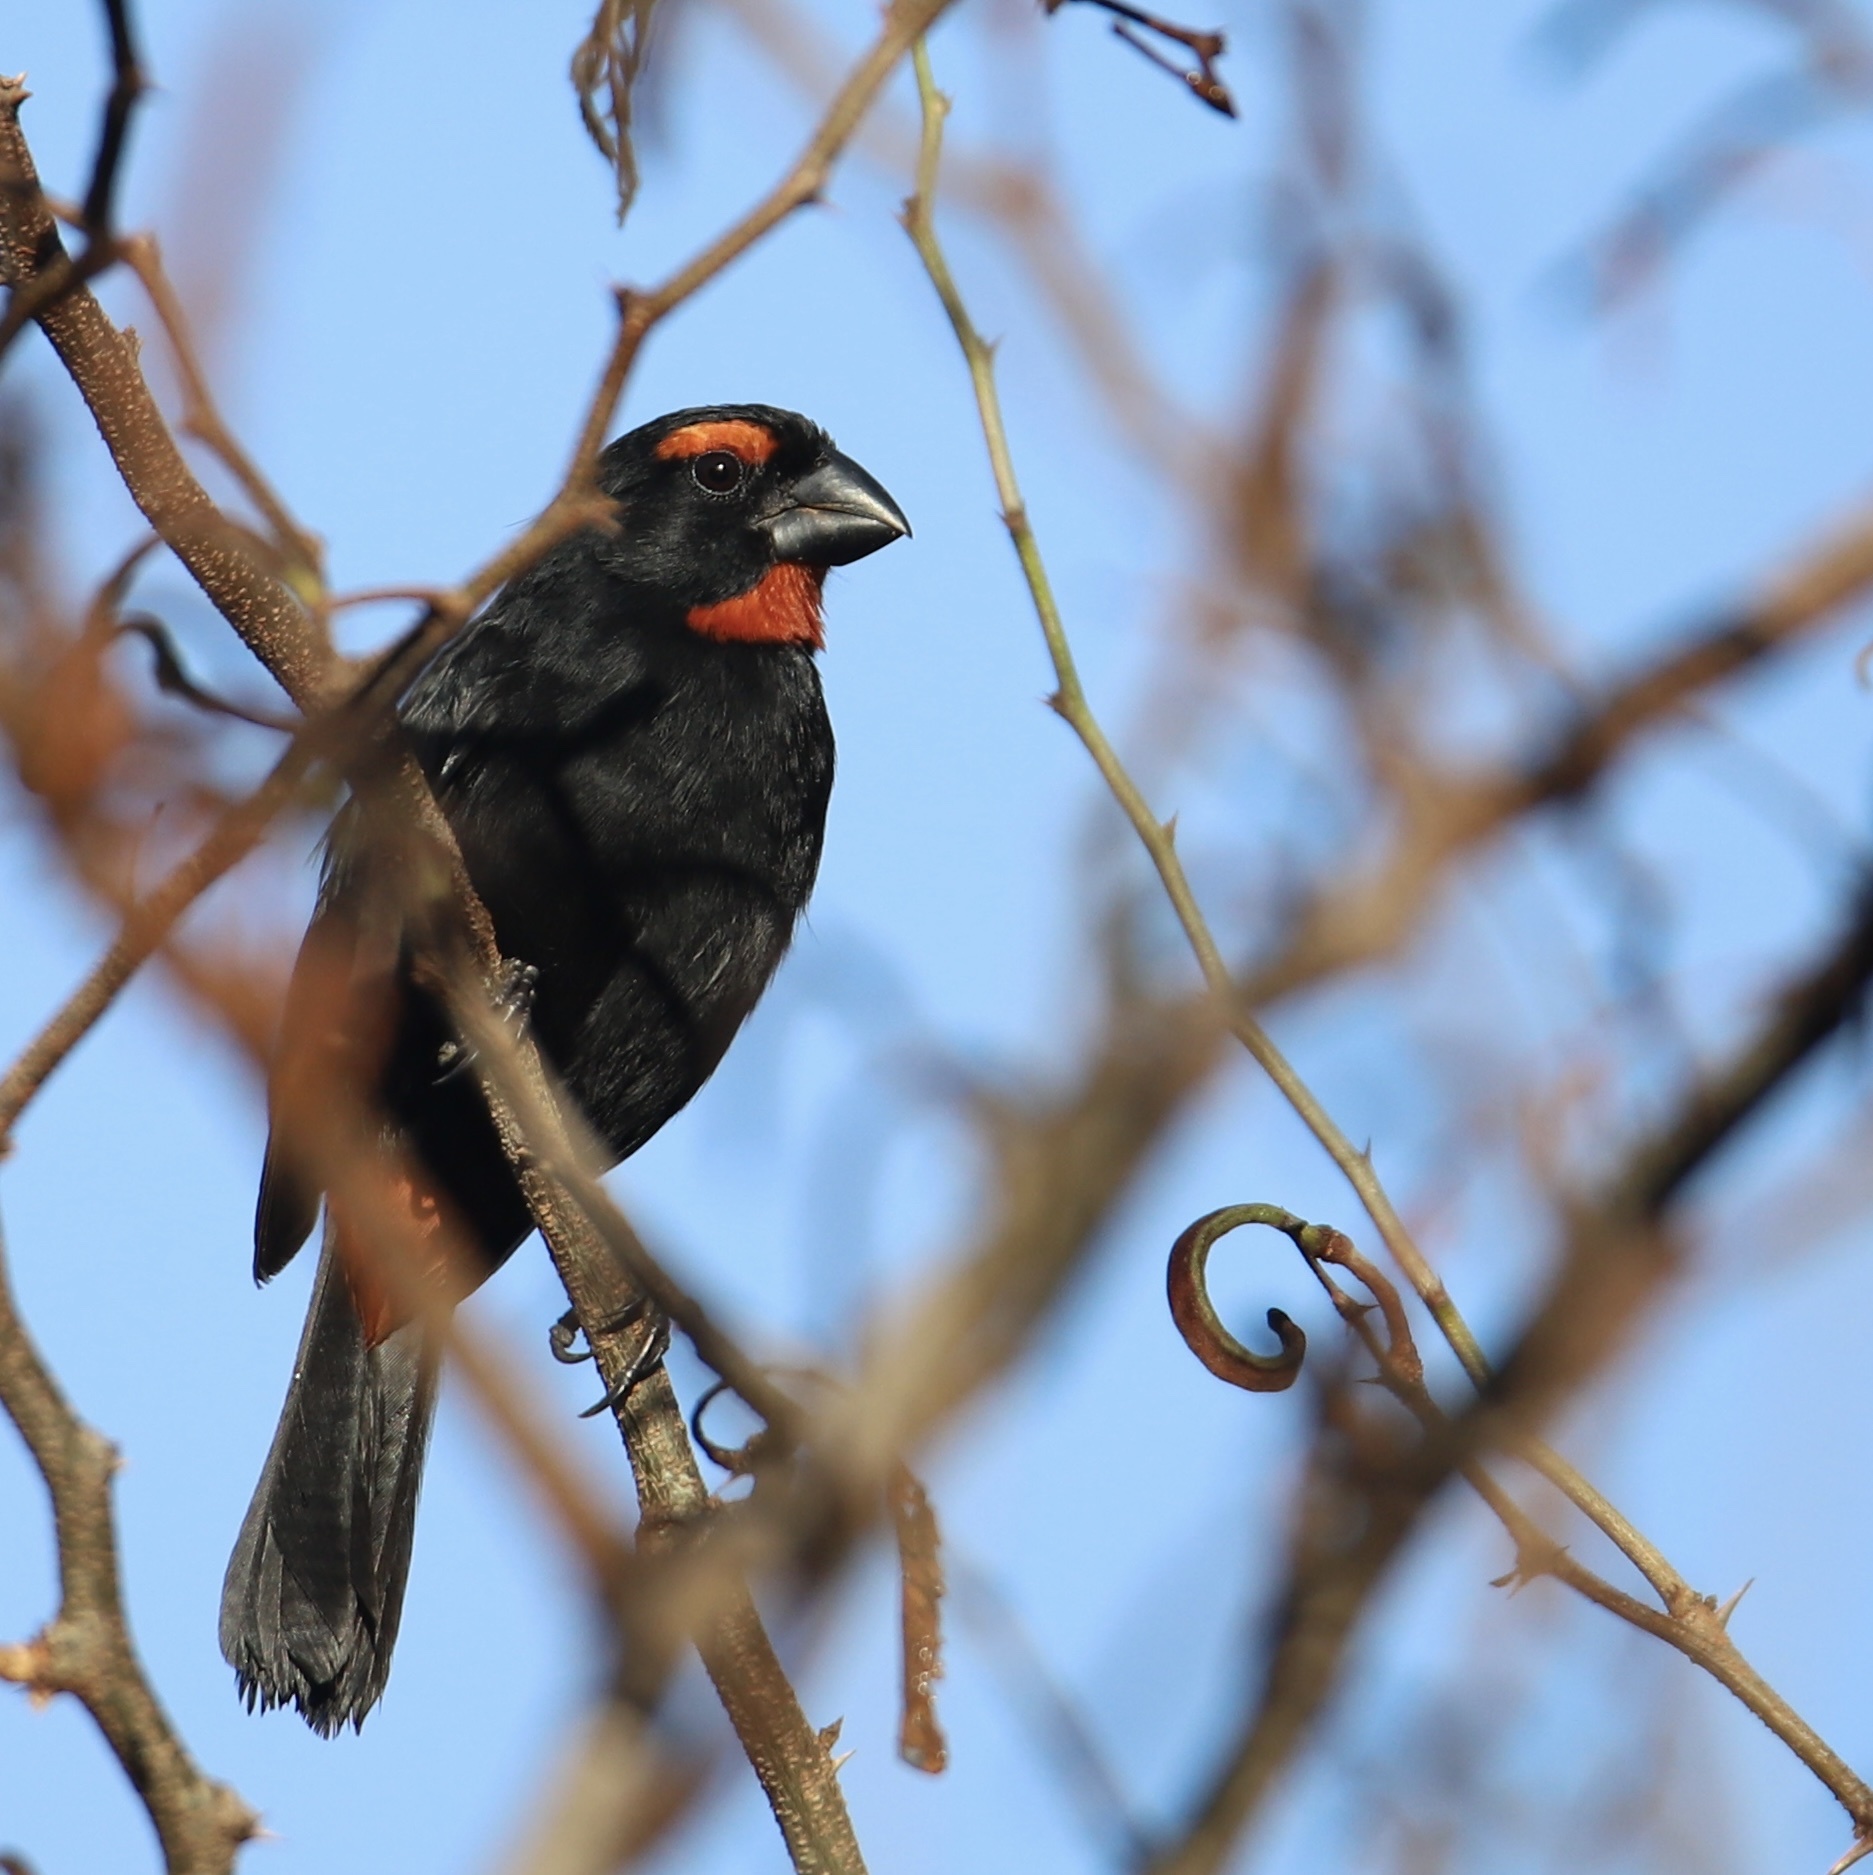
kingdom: Animalia
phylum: Chordata
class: Aves
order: Passeriformes
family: Thraupidae
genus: Melopyrrha
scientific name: Melopyrrha violacea
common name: Greater antillean bullfinch
